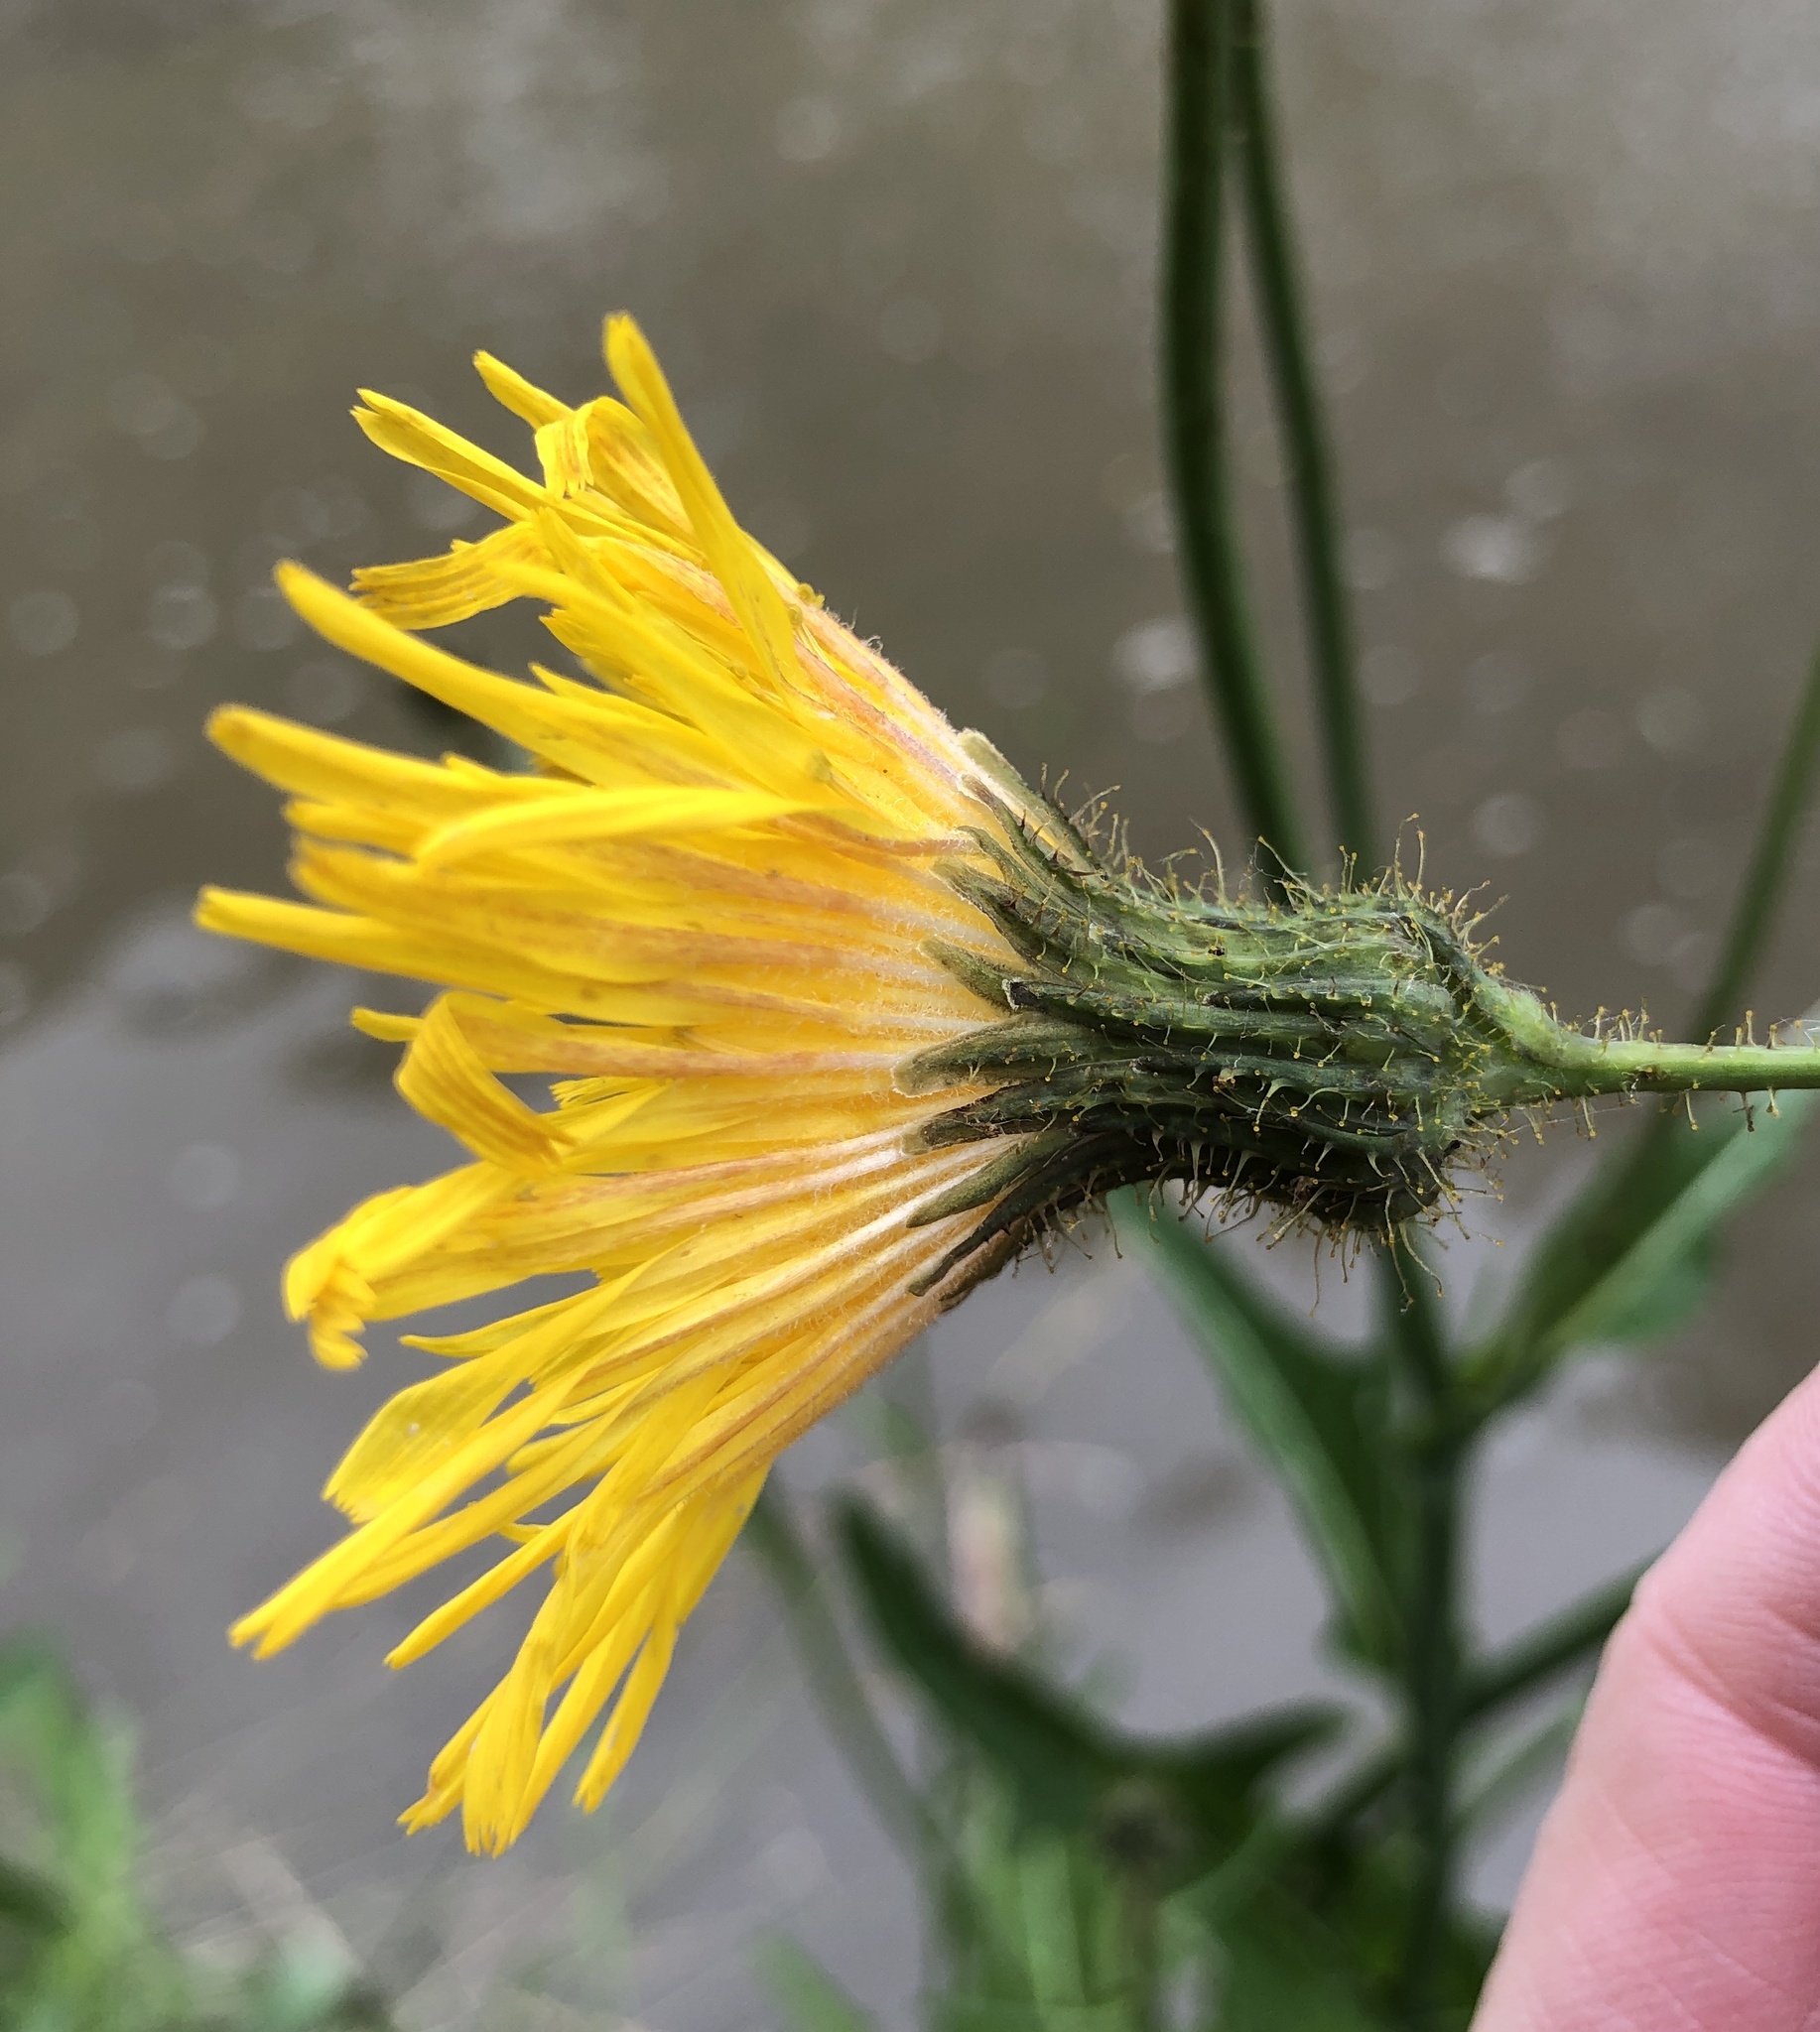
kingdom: Plantae
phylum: Tracheophyta
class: Magnoliopsida
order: Asterales
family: Asteraceae
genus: Sonchus
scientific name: Sonchus arvensis
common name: Perennial sow-thistle
